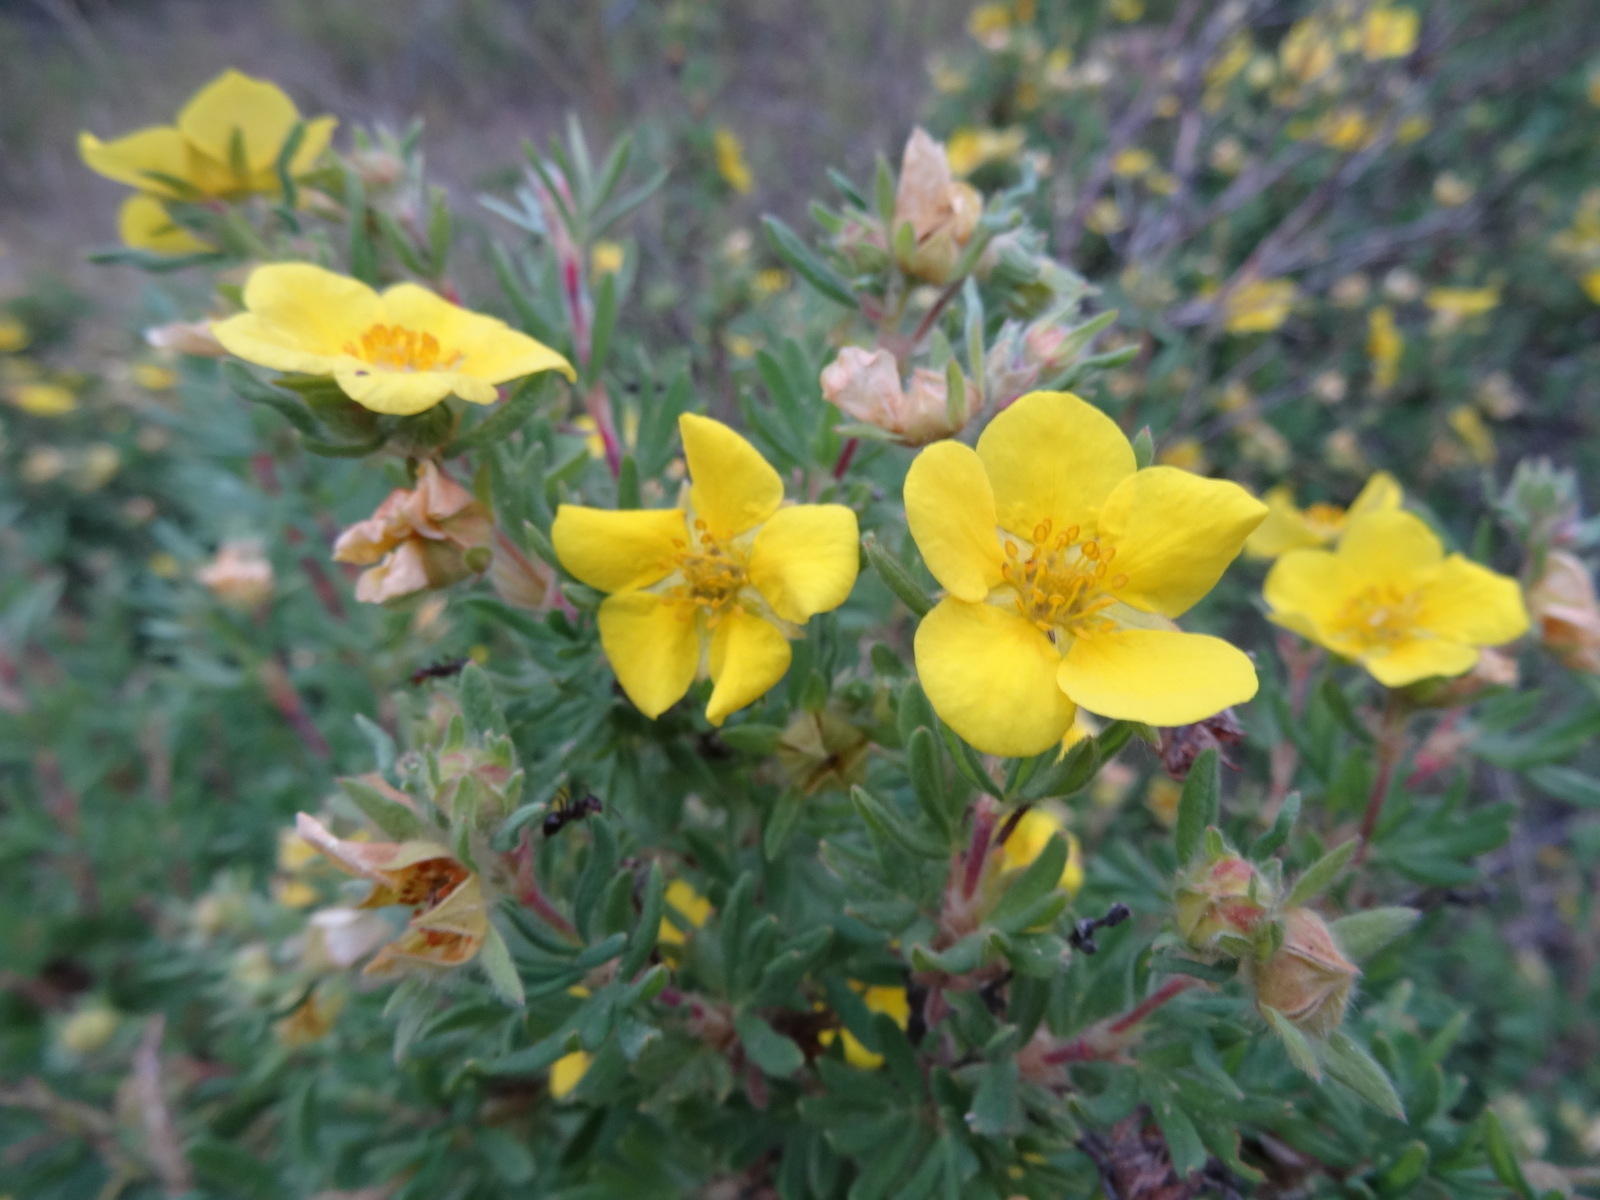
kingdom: Plantae
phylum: Tracheophyta
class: Magnoliopsida
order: Rosales
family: Rosaceae
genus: Dasiphora
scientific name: Dasiphora fruticosa
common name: Shrubby cinquefoil
